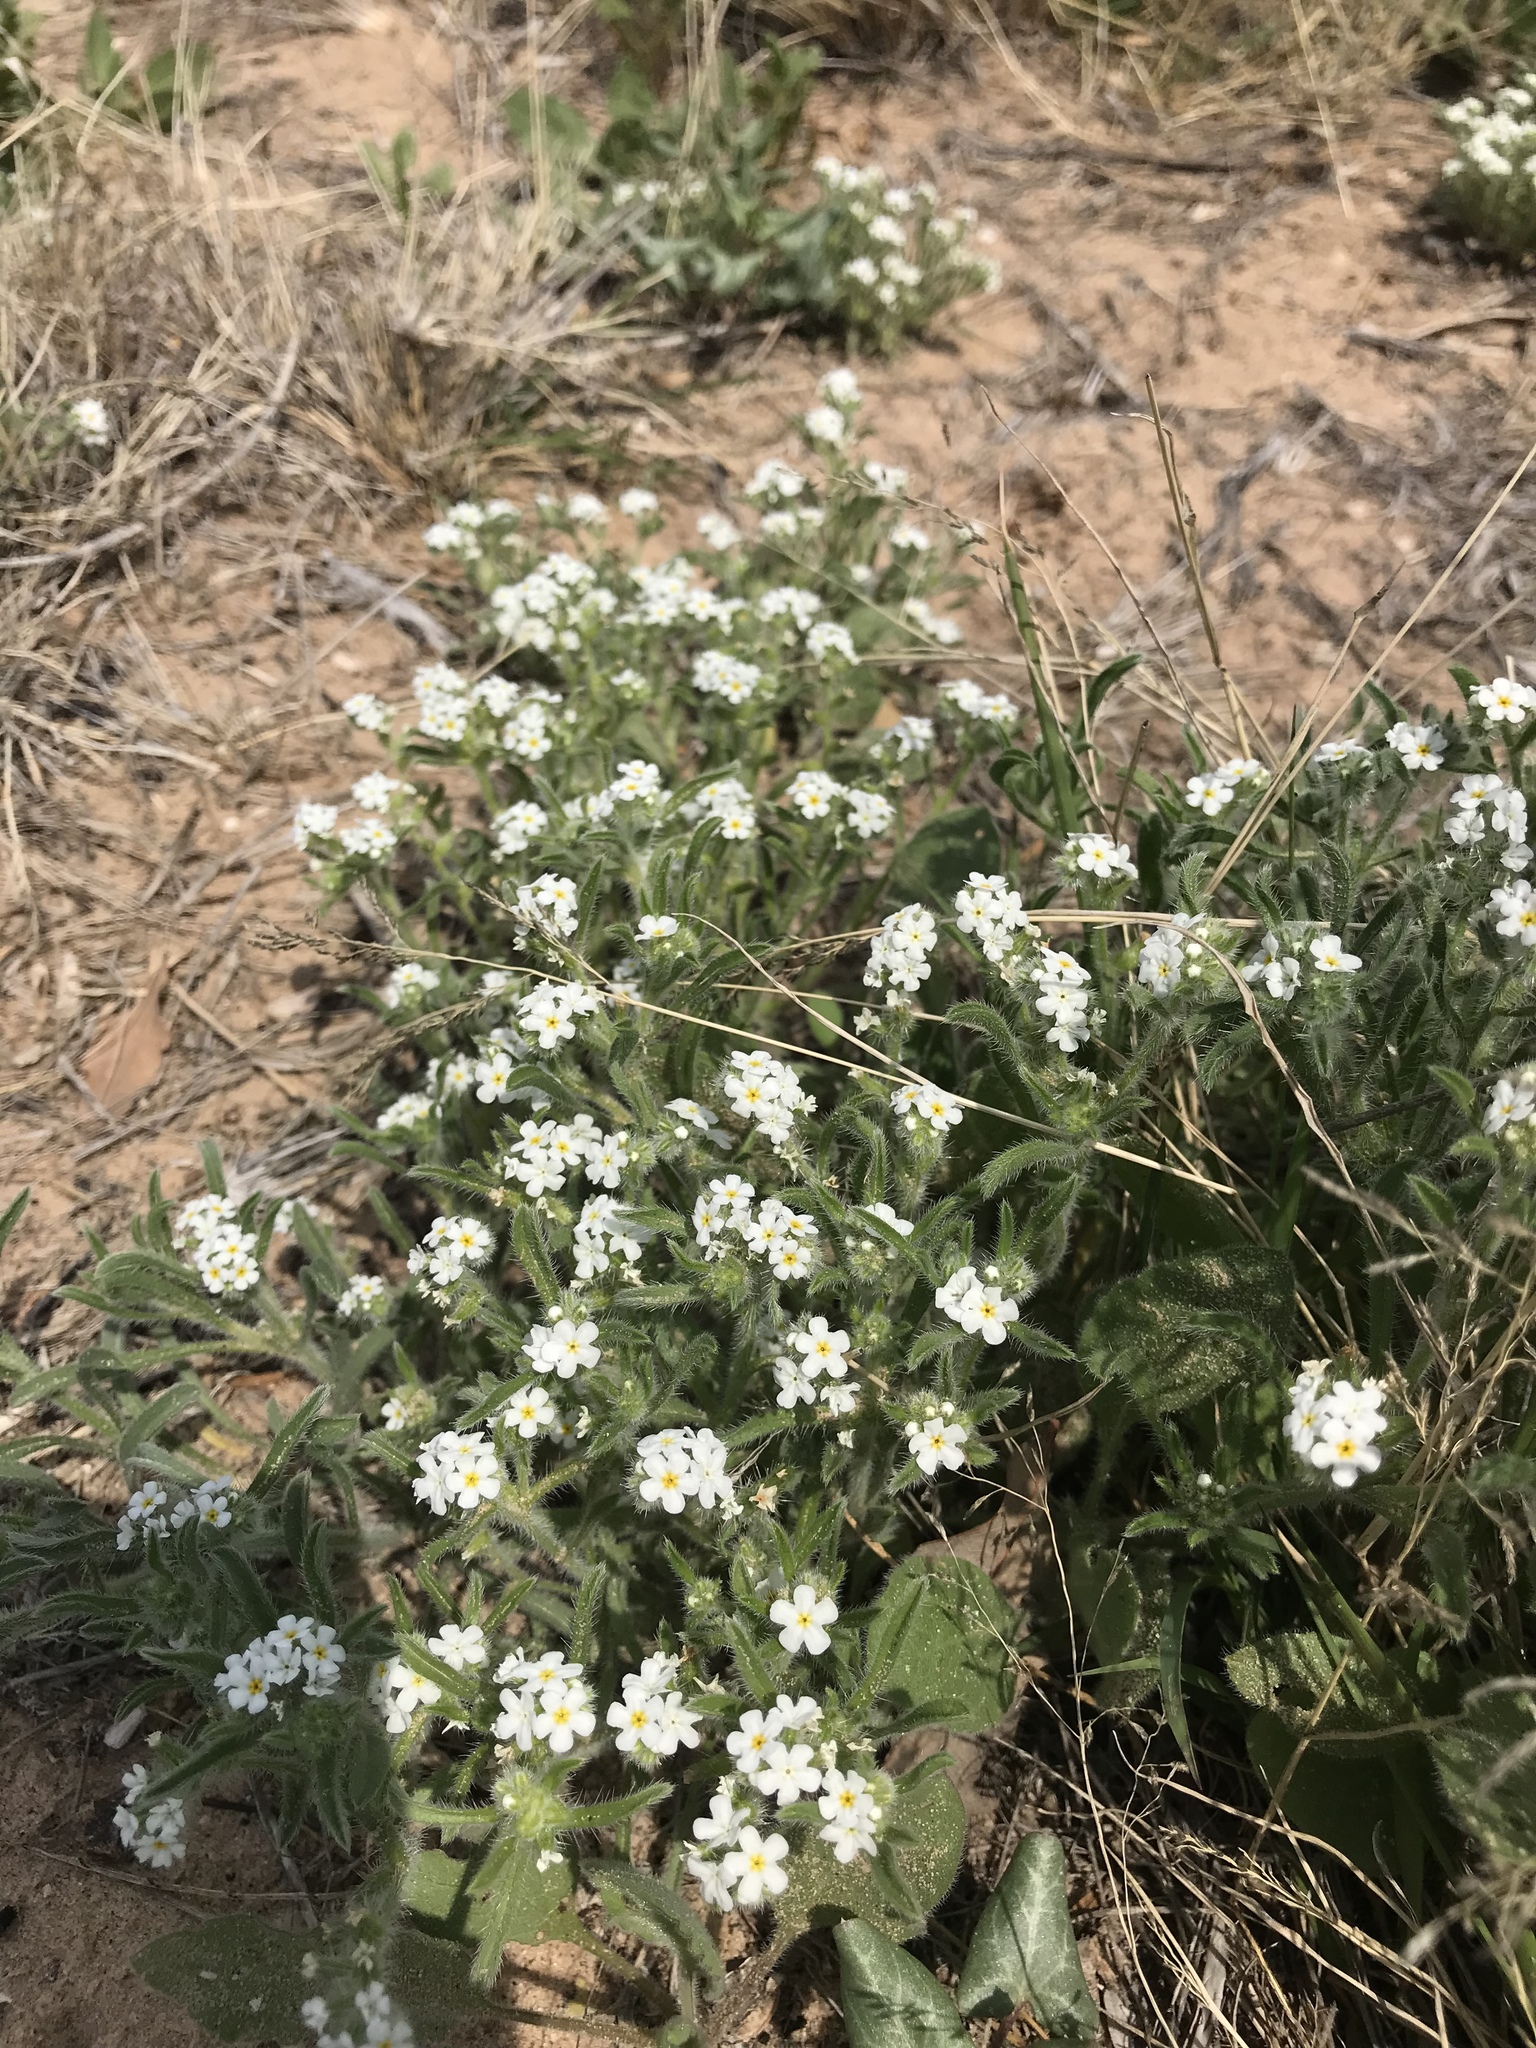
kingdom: Plantae
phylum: Tracheophyta
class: Magnoliopsida
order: Boraginales
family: Boraginaceae
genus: Cryptantha
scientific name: Cryptantha crassisepala
